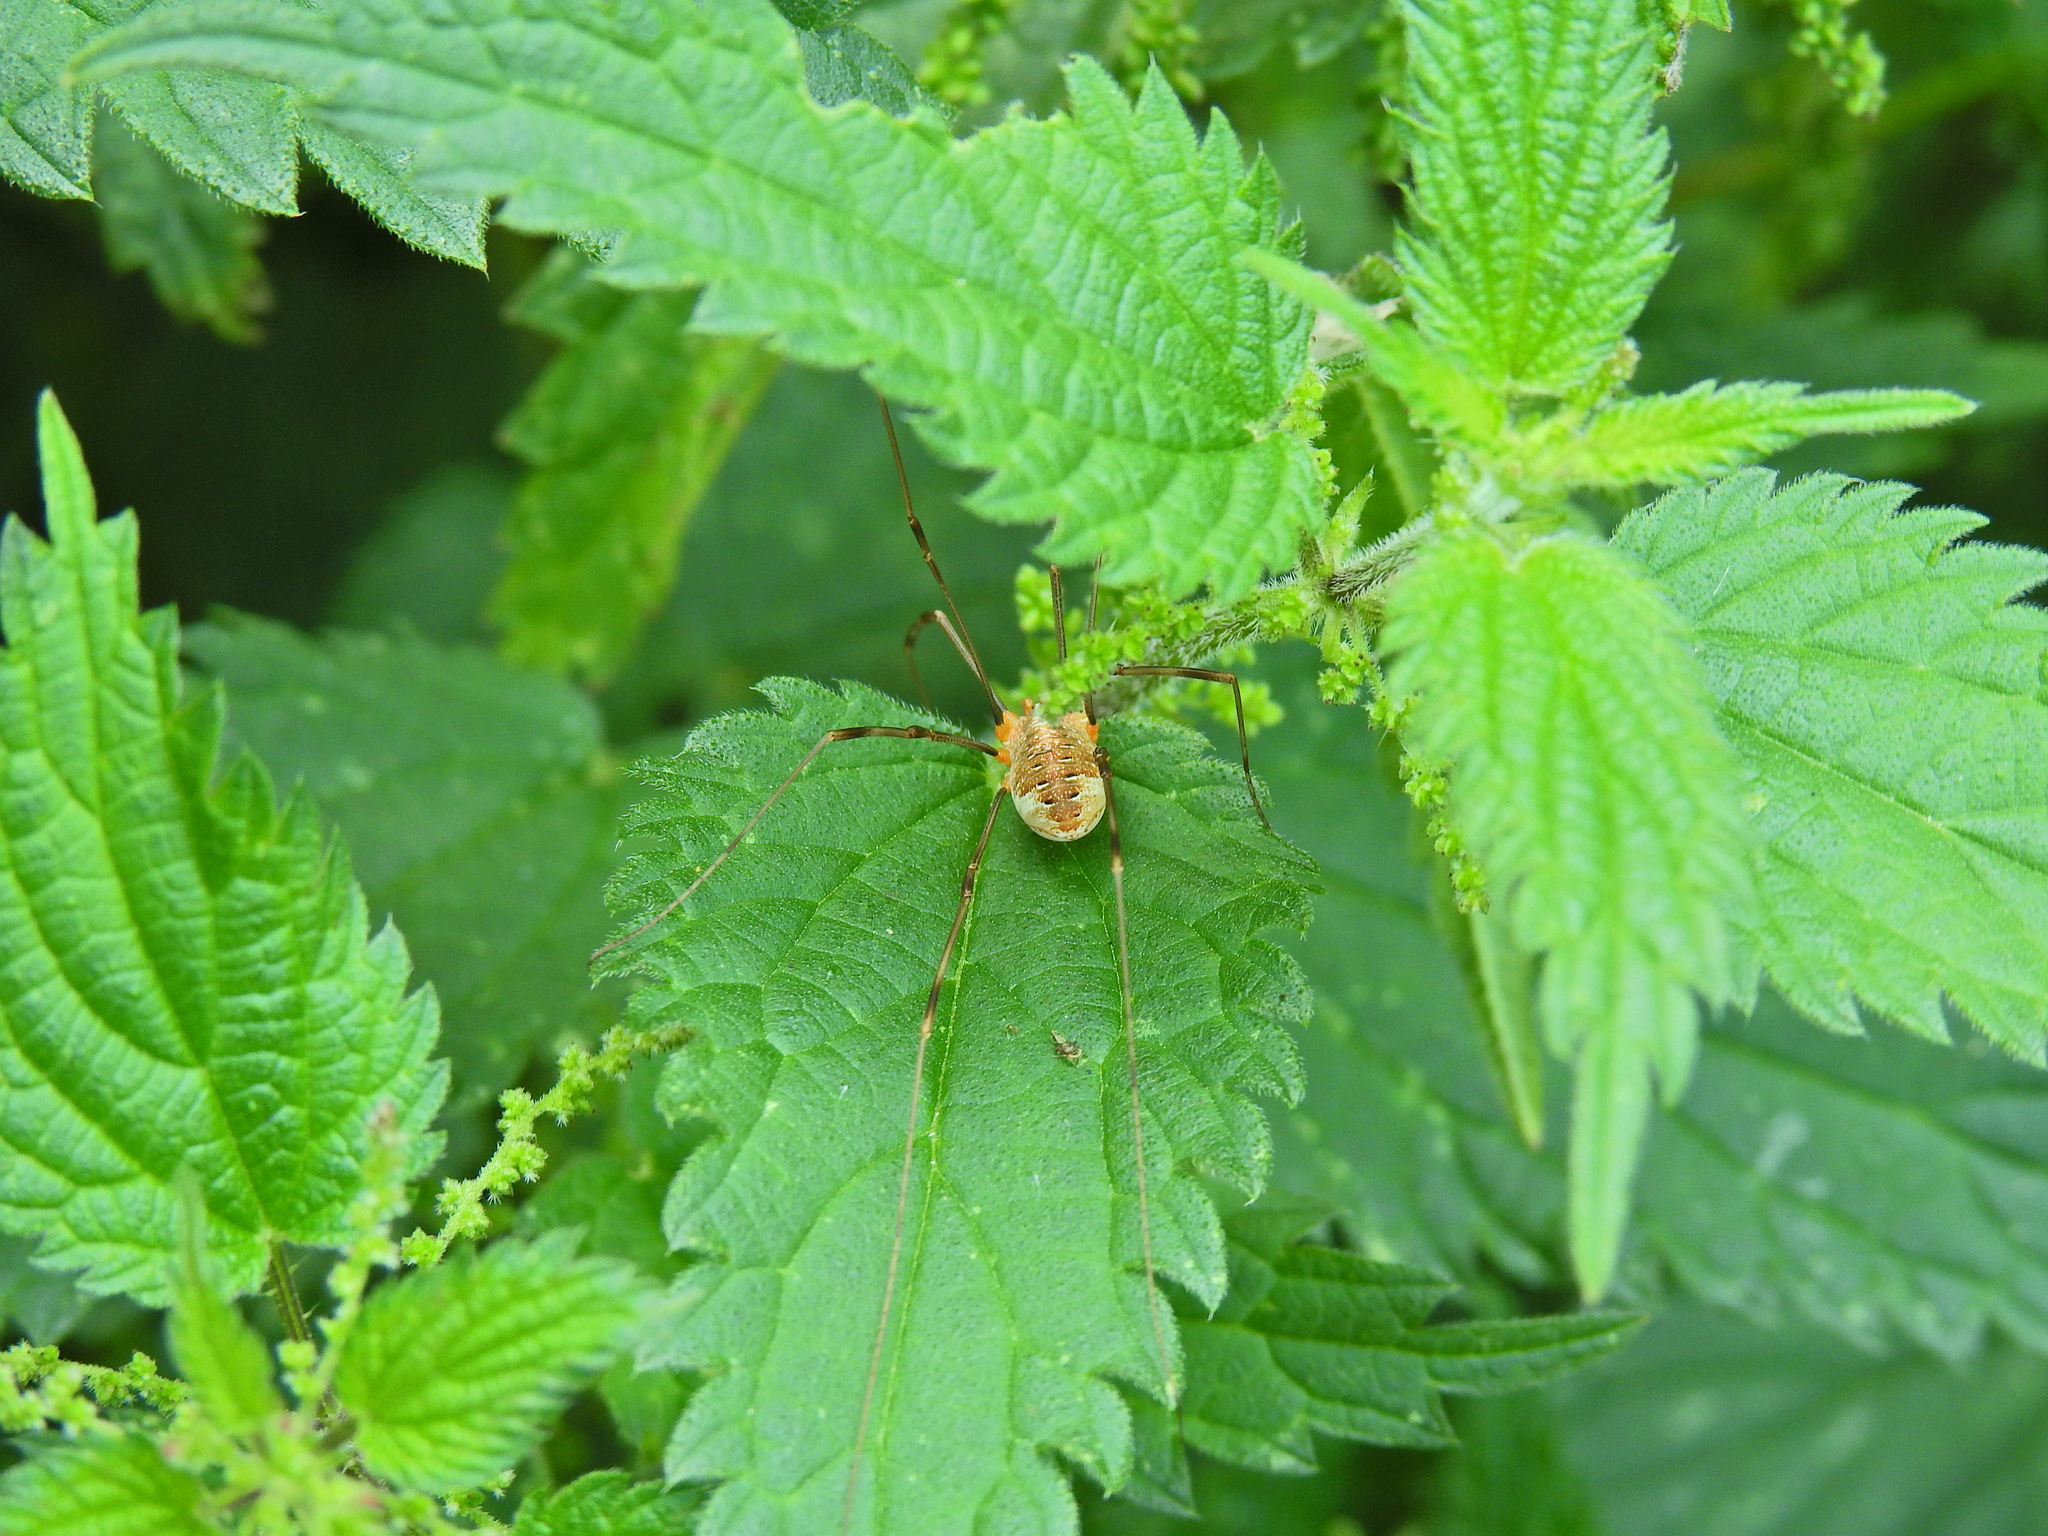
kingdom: Animalia
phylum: Arthropoda
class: Arachnida
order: Opiliones
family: Phalangiidae
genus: Opilio
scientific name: Opilio canestrinii
